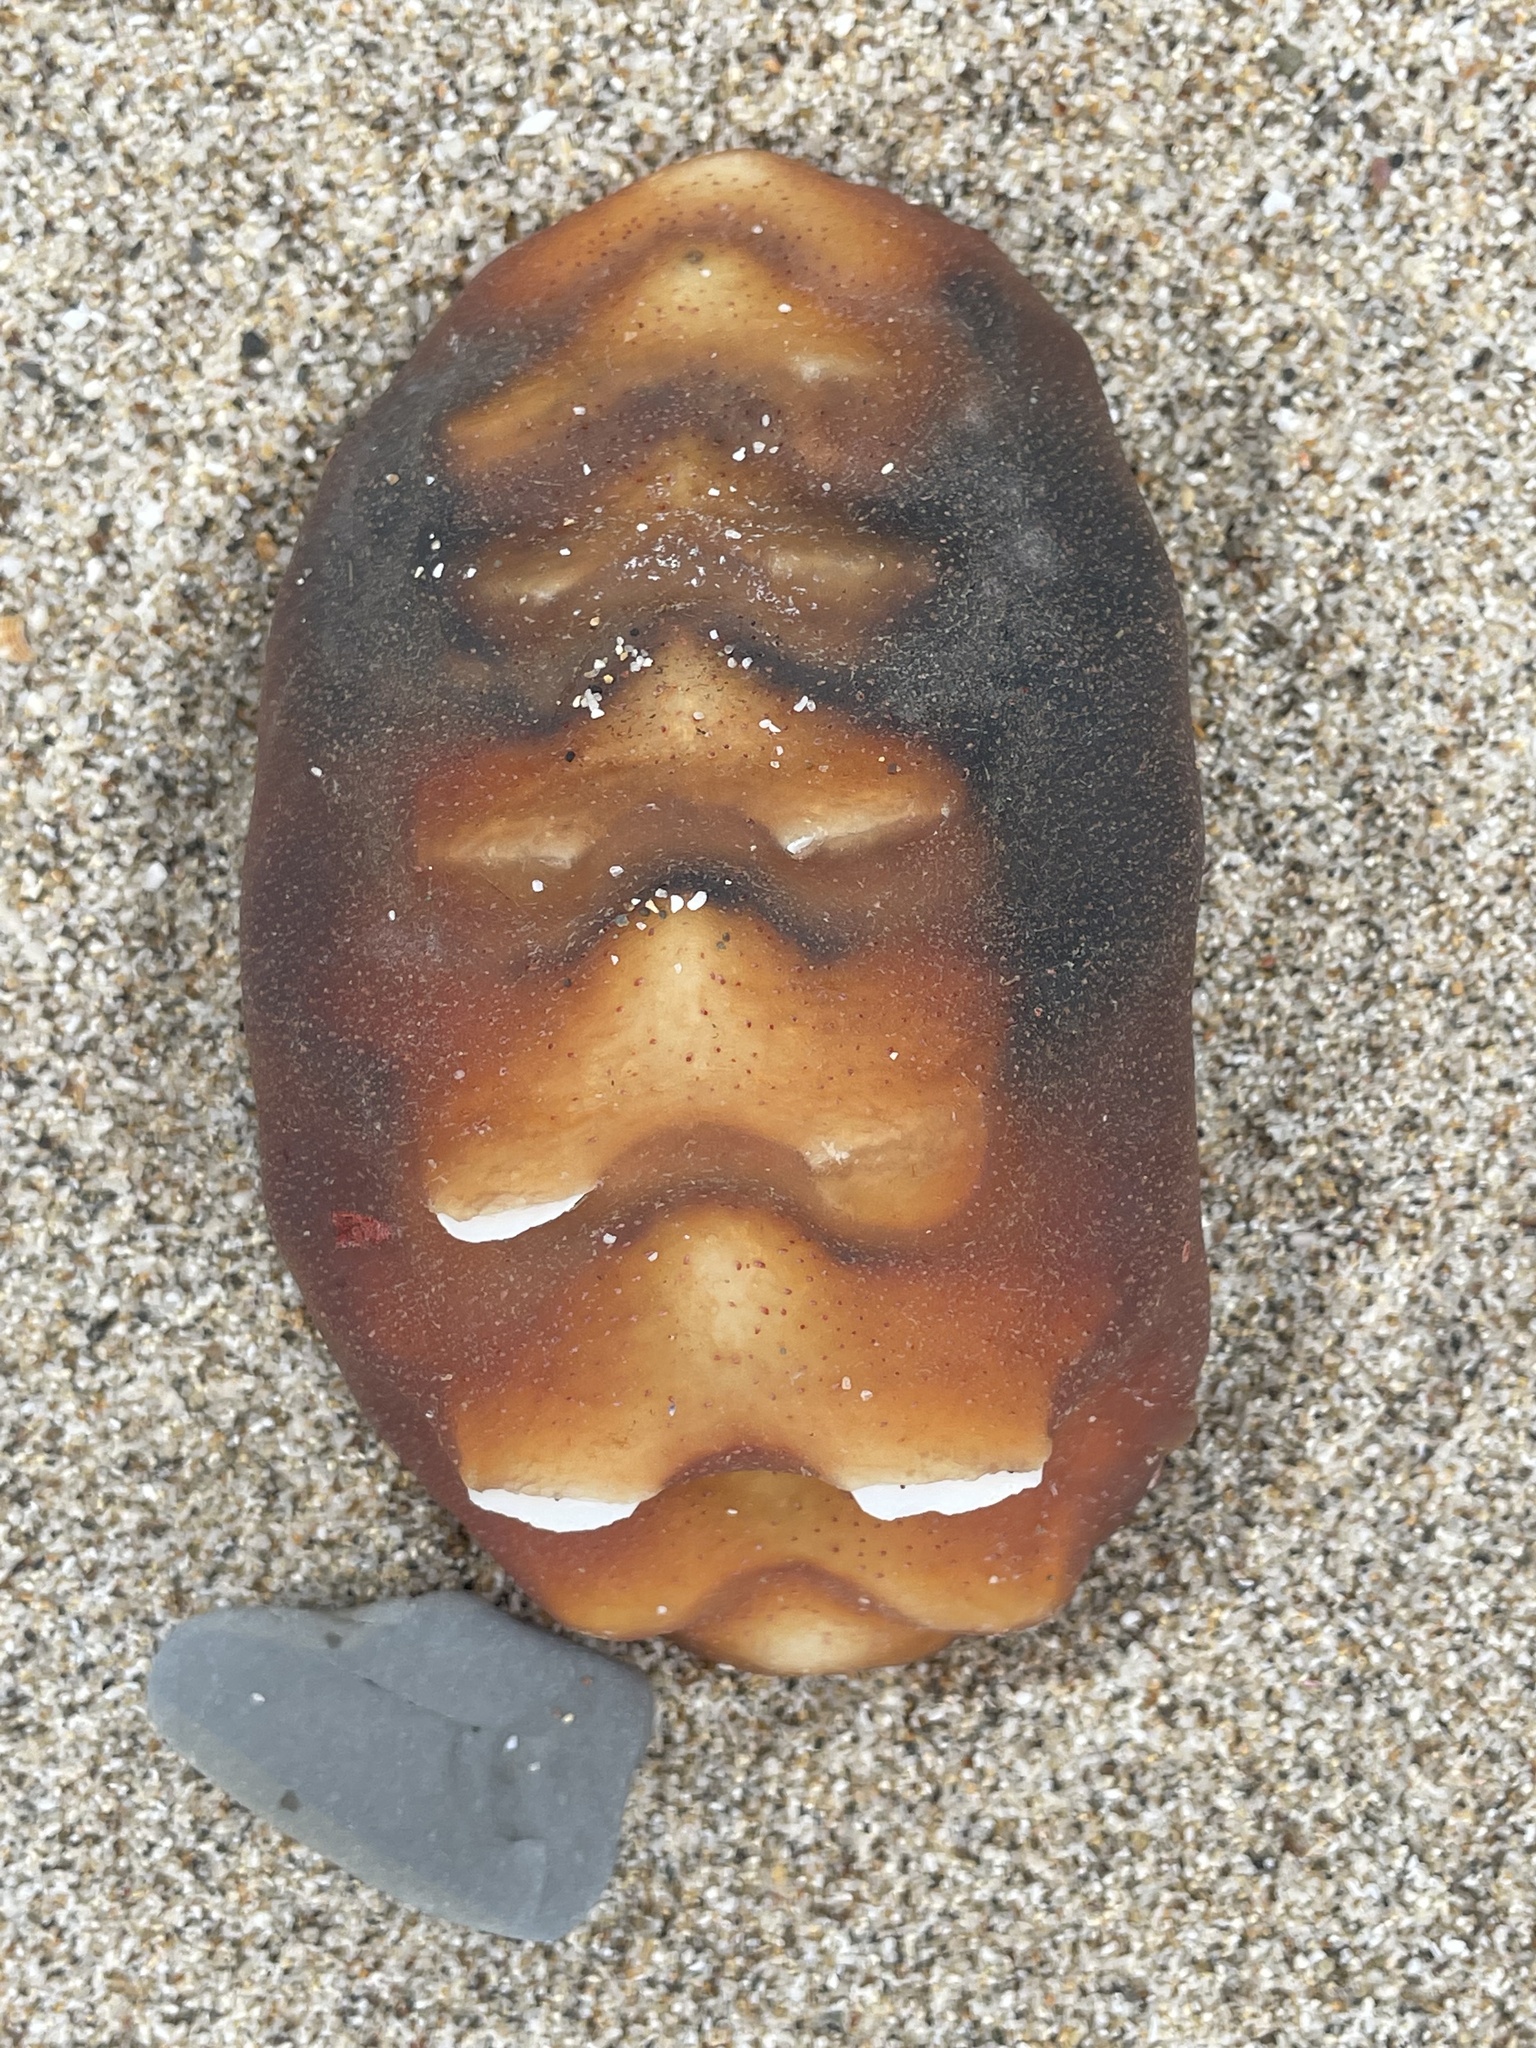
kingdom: Animalia
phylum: Mollusca
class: Polyplacophora
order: Chitonida
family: Acanthochitonidae
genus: Cryptochiton
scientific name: Cryptochiton stelleri
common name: Giant pacific chiton
